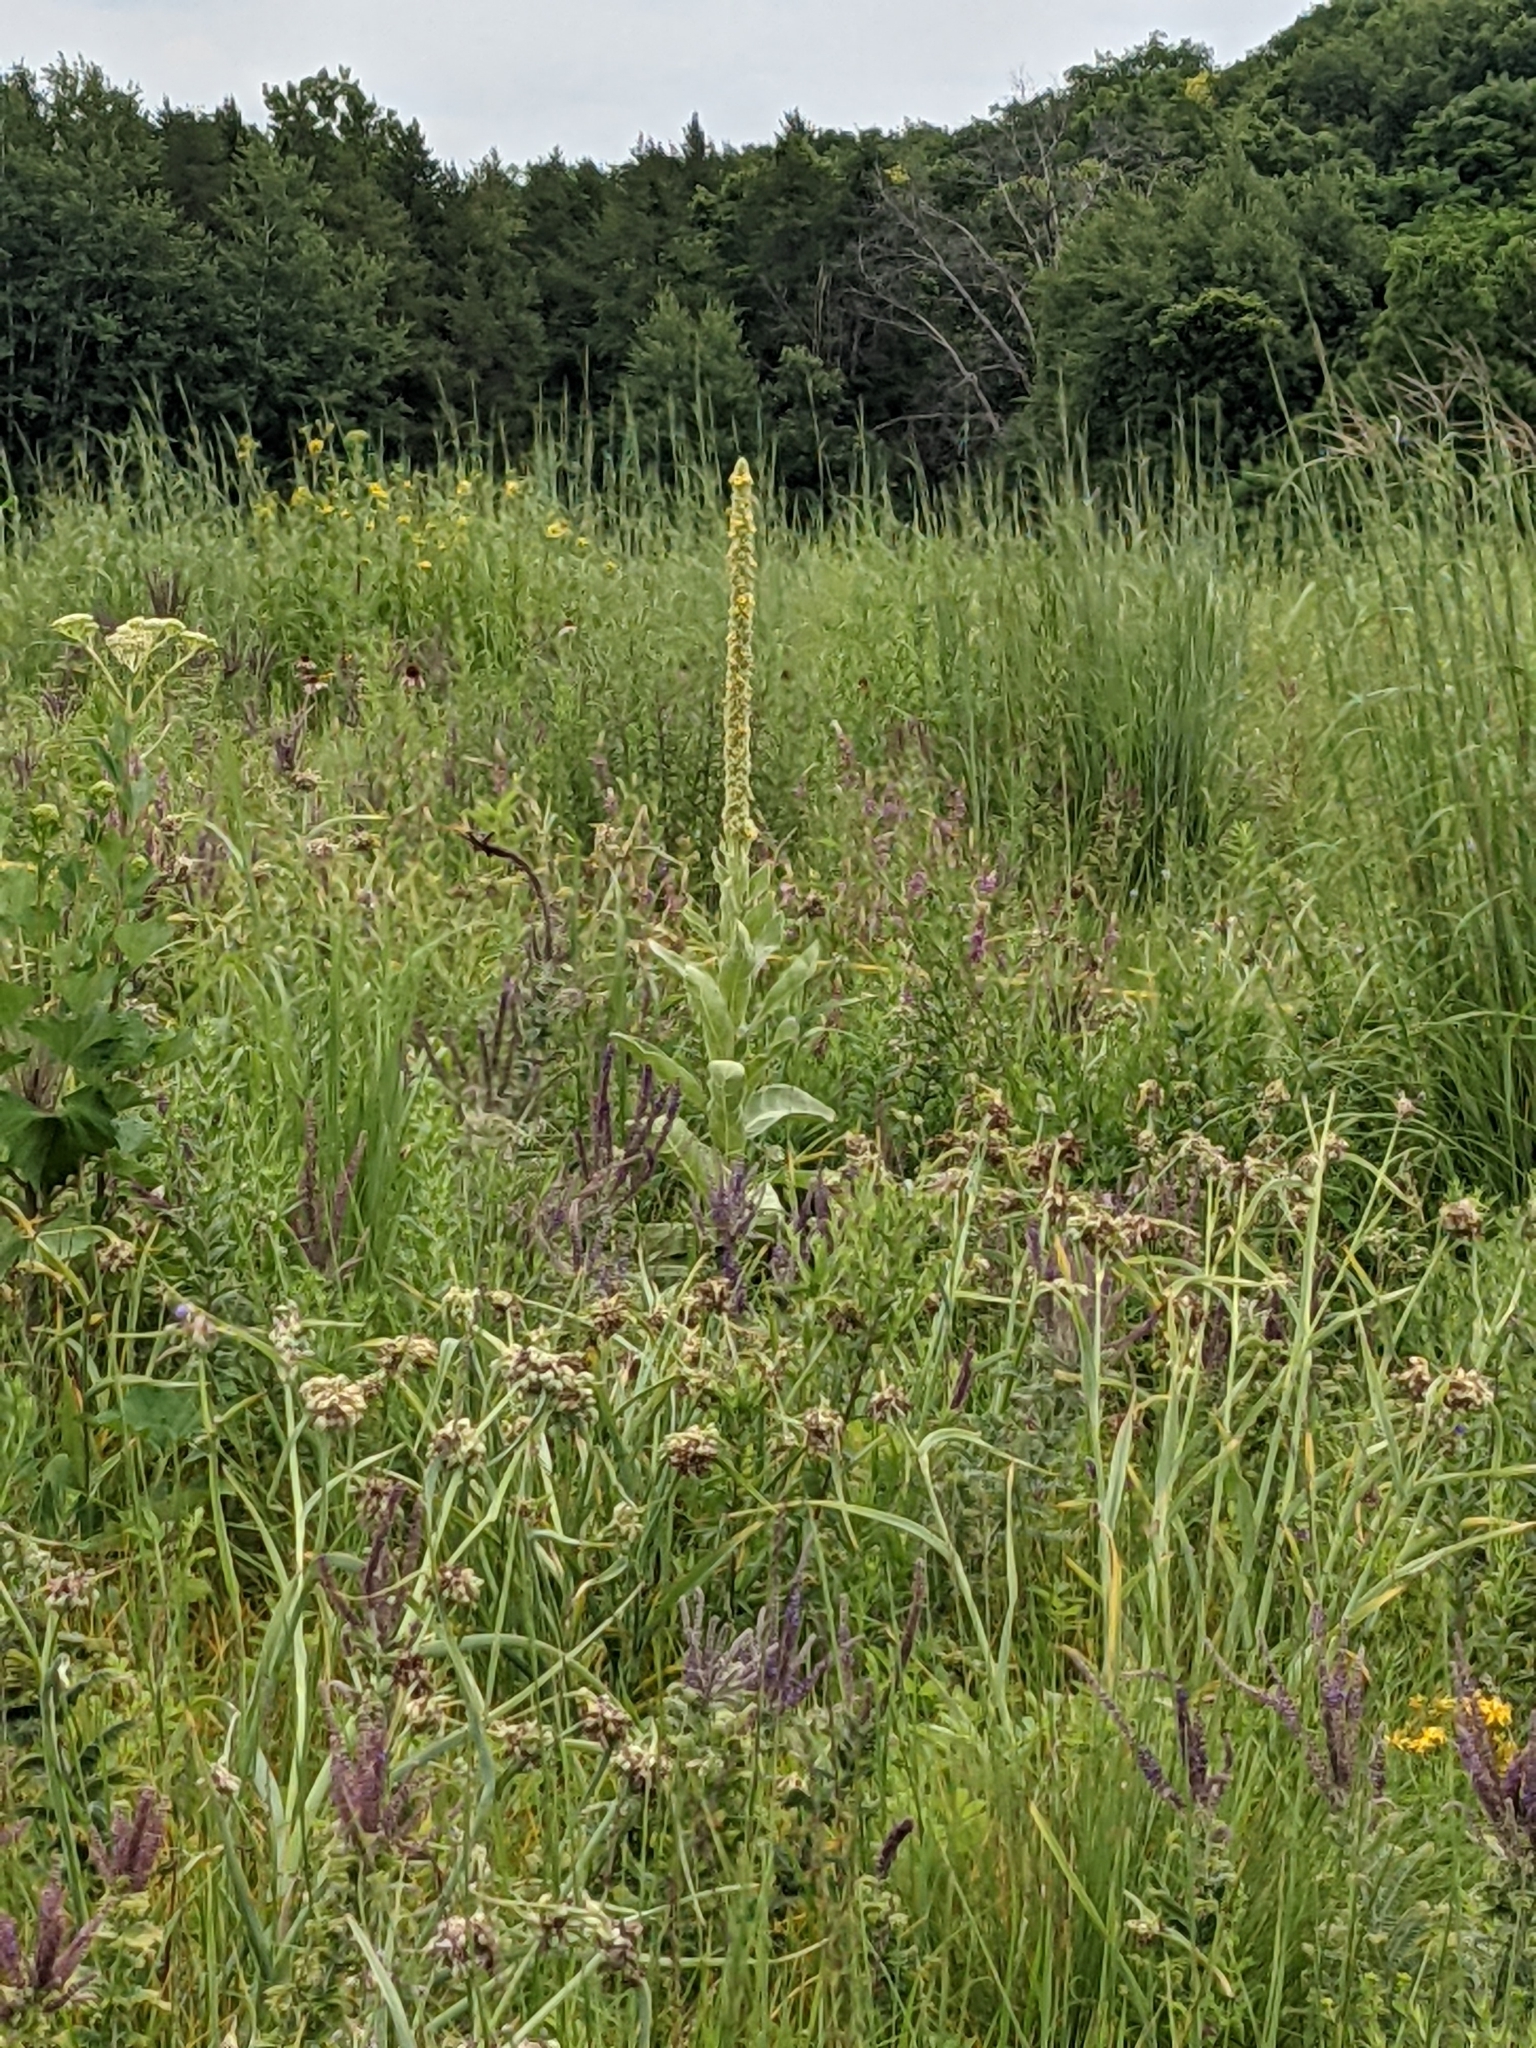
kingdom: Plantae
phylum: Tracheophyta
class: Magnoliopsida
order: Lamiales
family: Scrophulariaceae
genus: Verbascum
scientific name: Verbascum thapsus
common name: Common mullein
